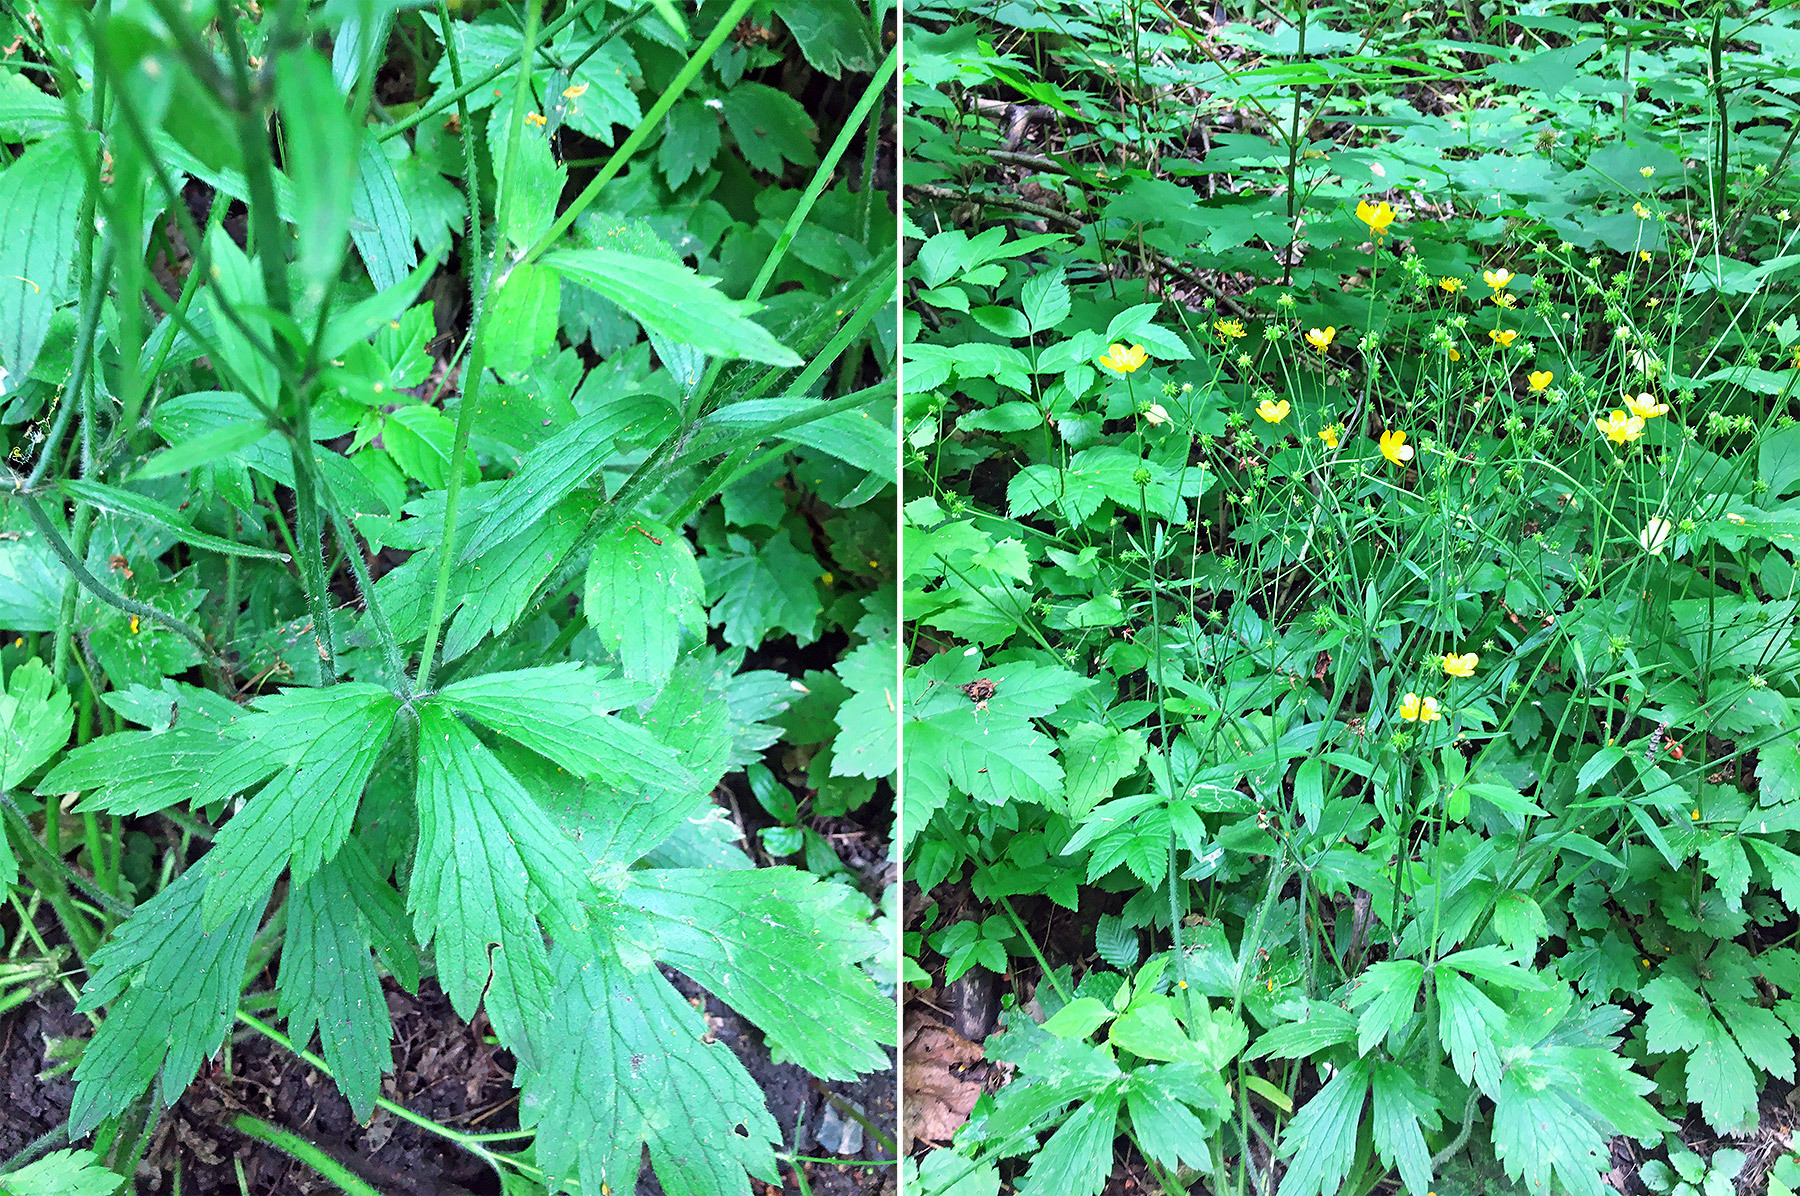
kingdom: Plantae
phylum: Tracheophyta
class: Magnoliopsida
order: Ranunculales
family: Ranunculaceae
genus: Ranunculus
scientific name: Ranunculus lanuginosus
